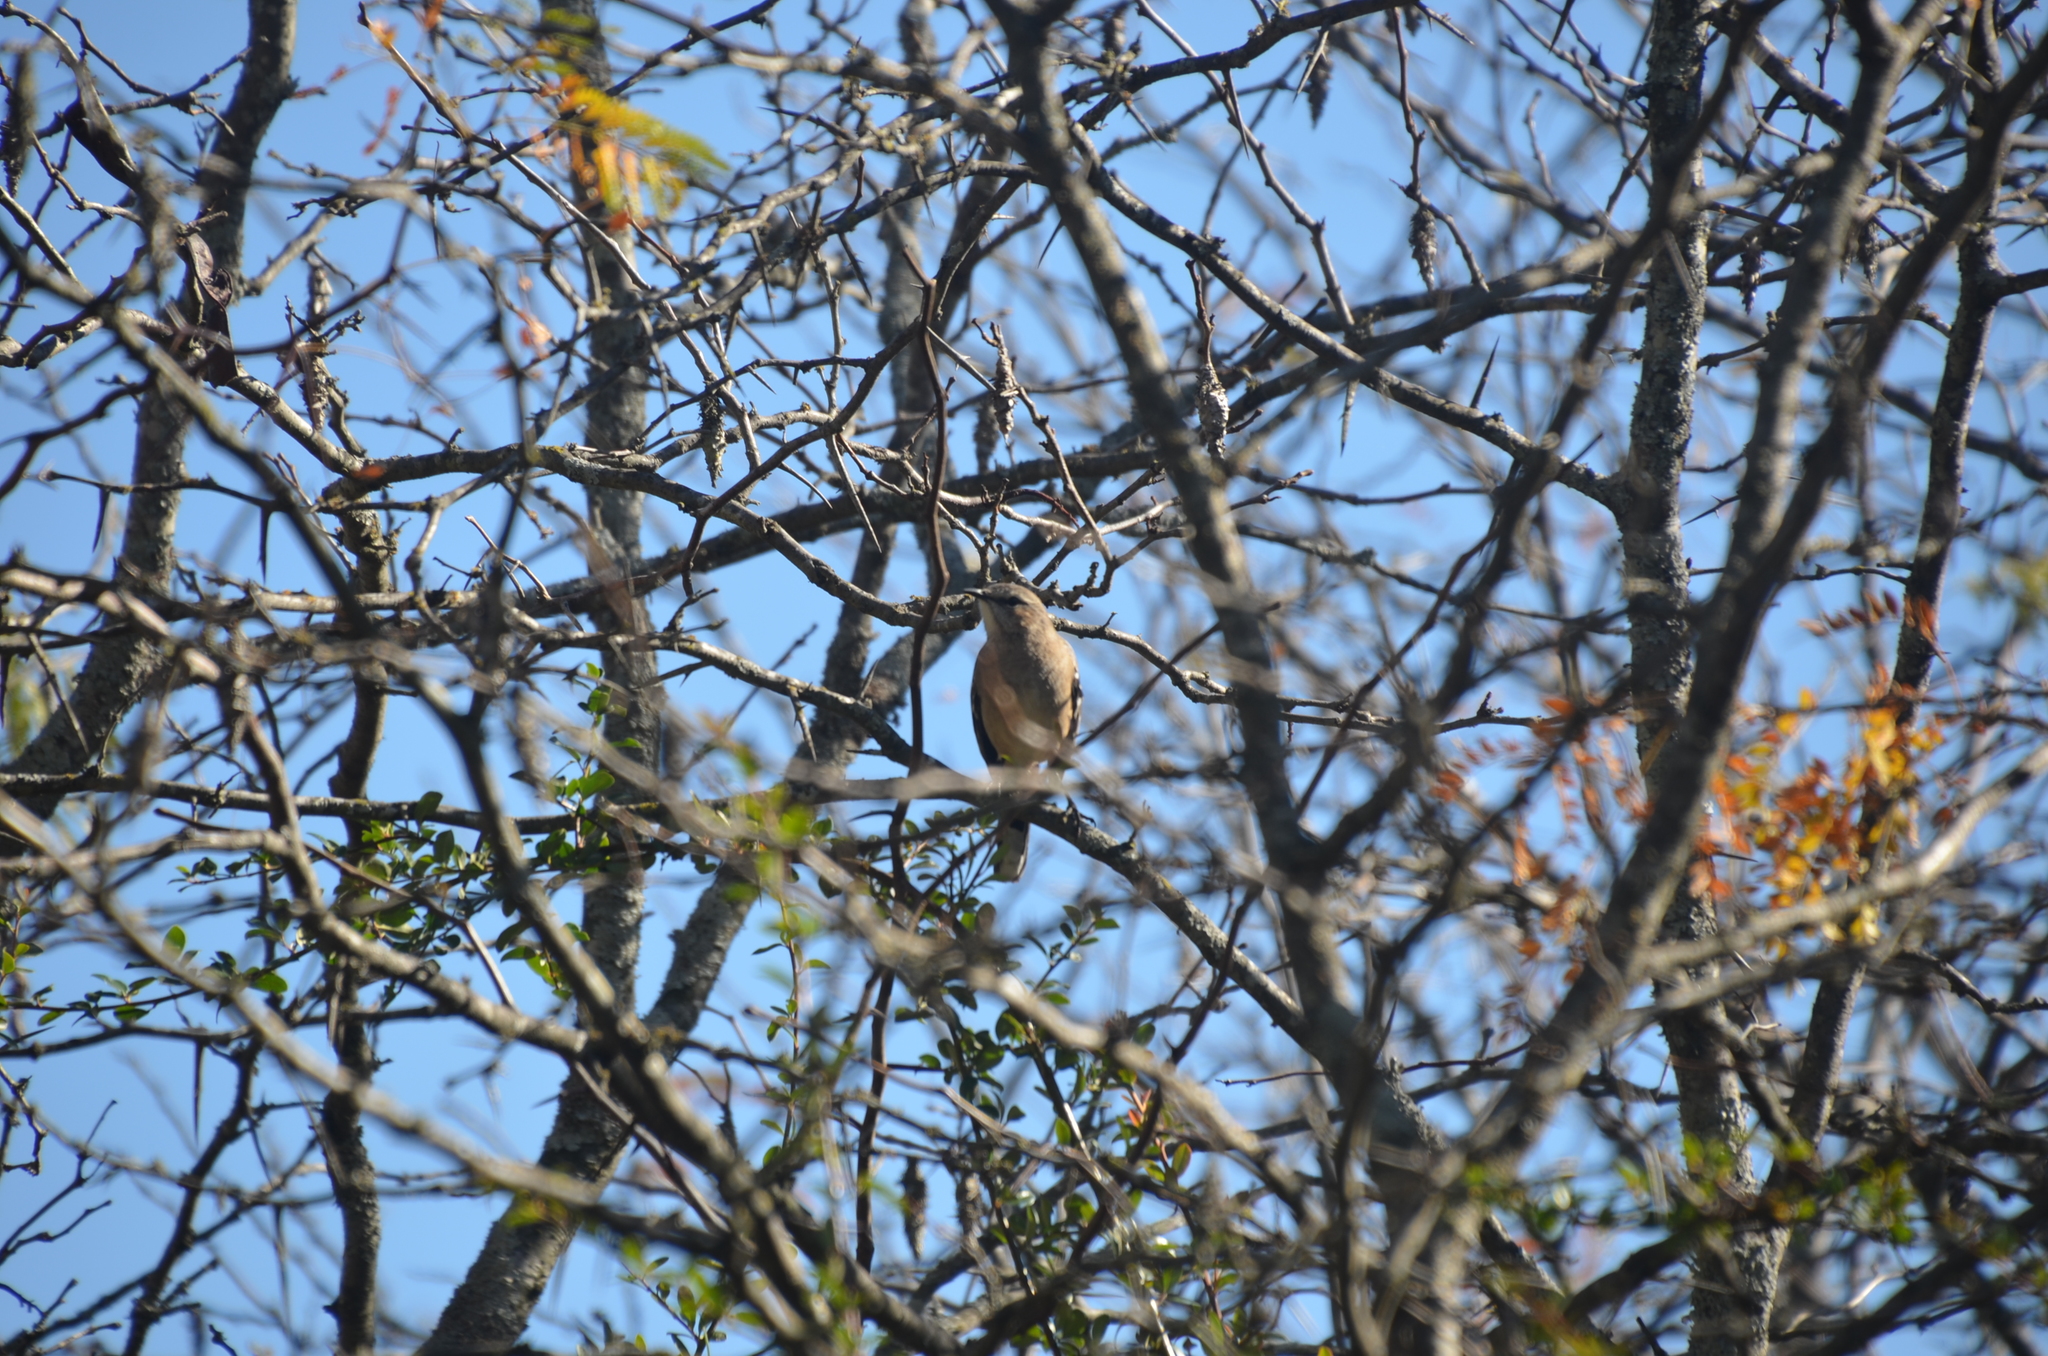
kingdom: Animalia
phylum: Chordata
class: Aves
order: Passeriformes
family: Mimidae
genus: Mimus
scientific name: Mimus patagonicus
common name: Patagonian mockingbird
